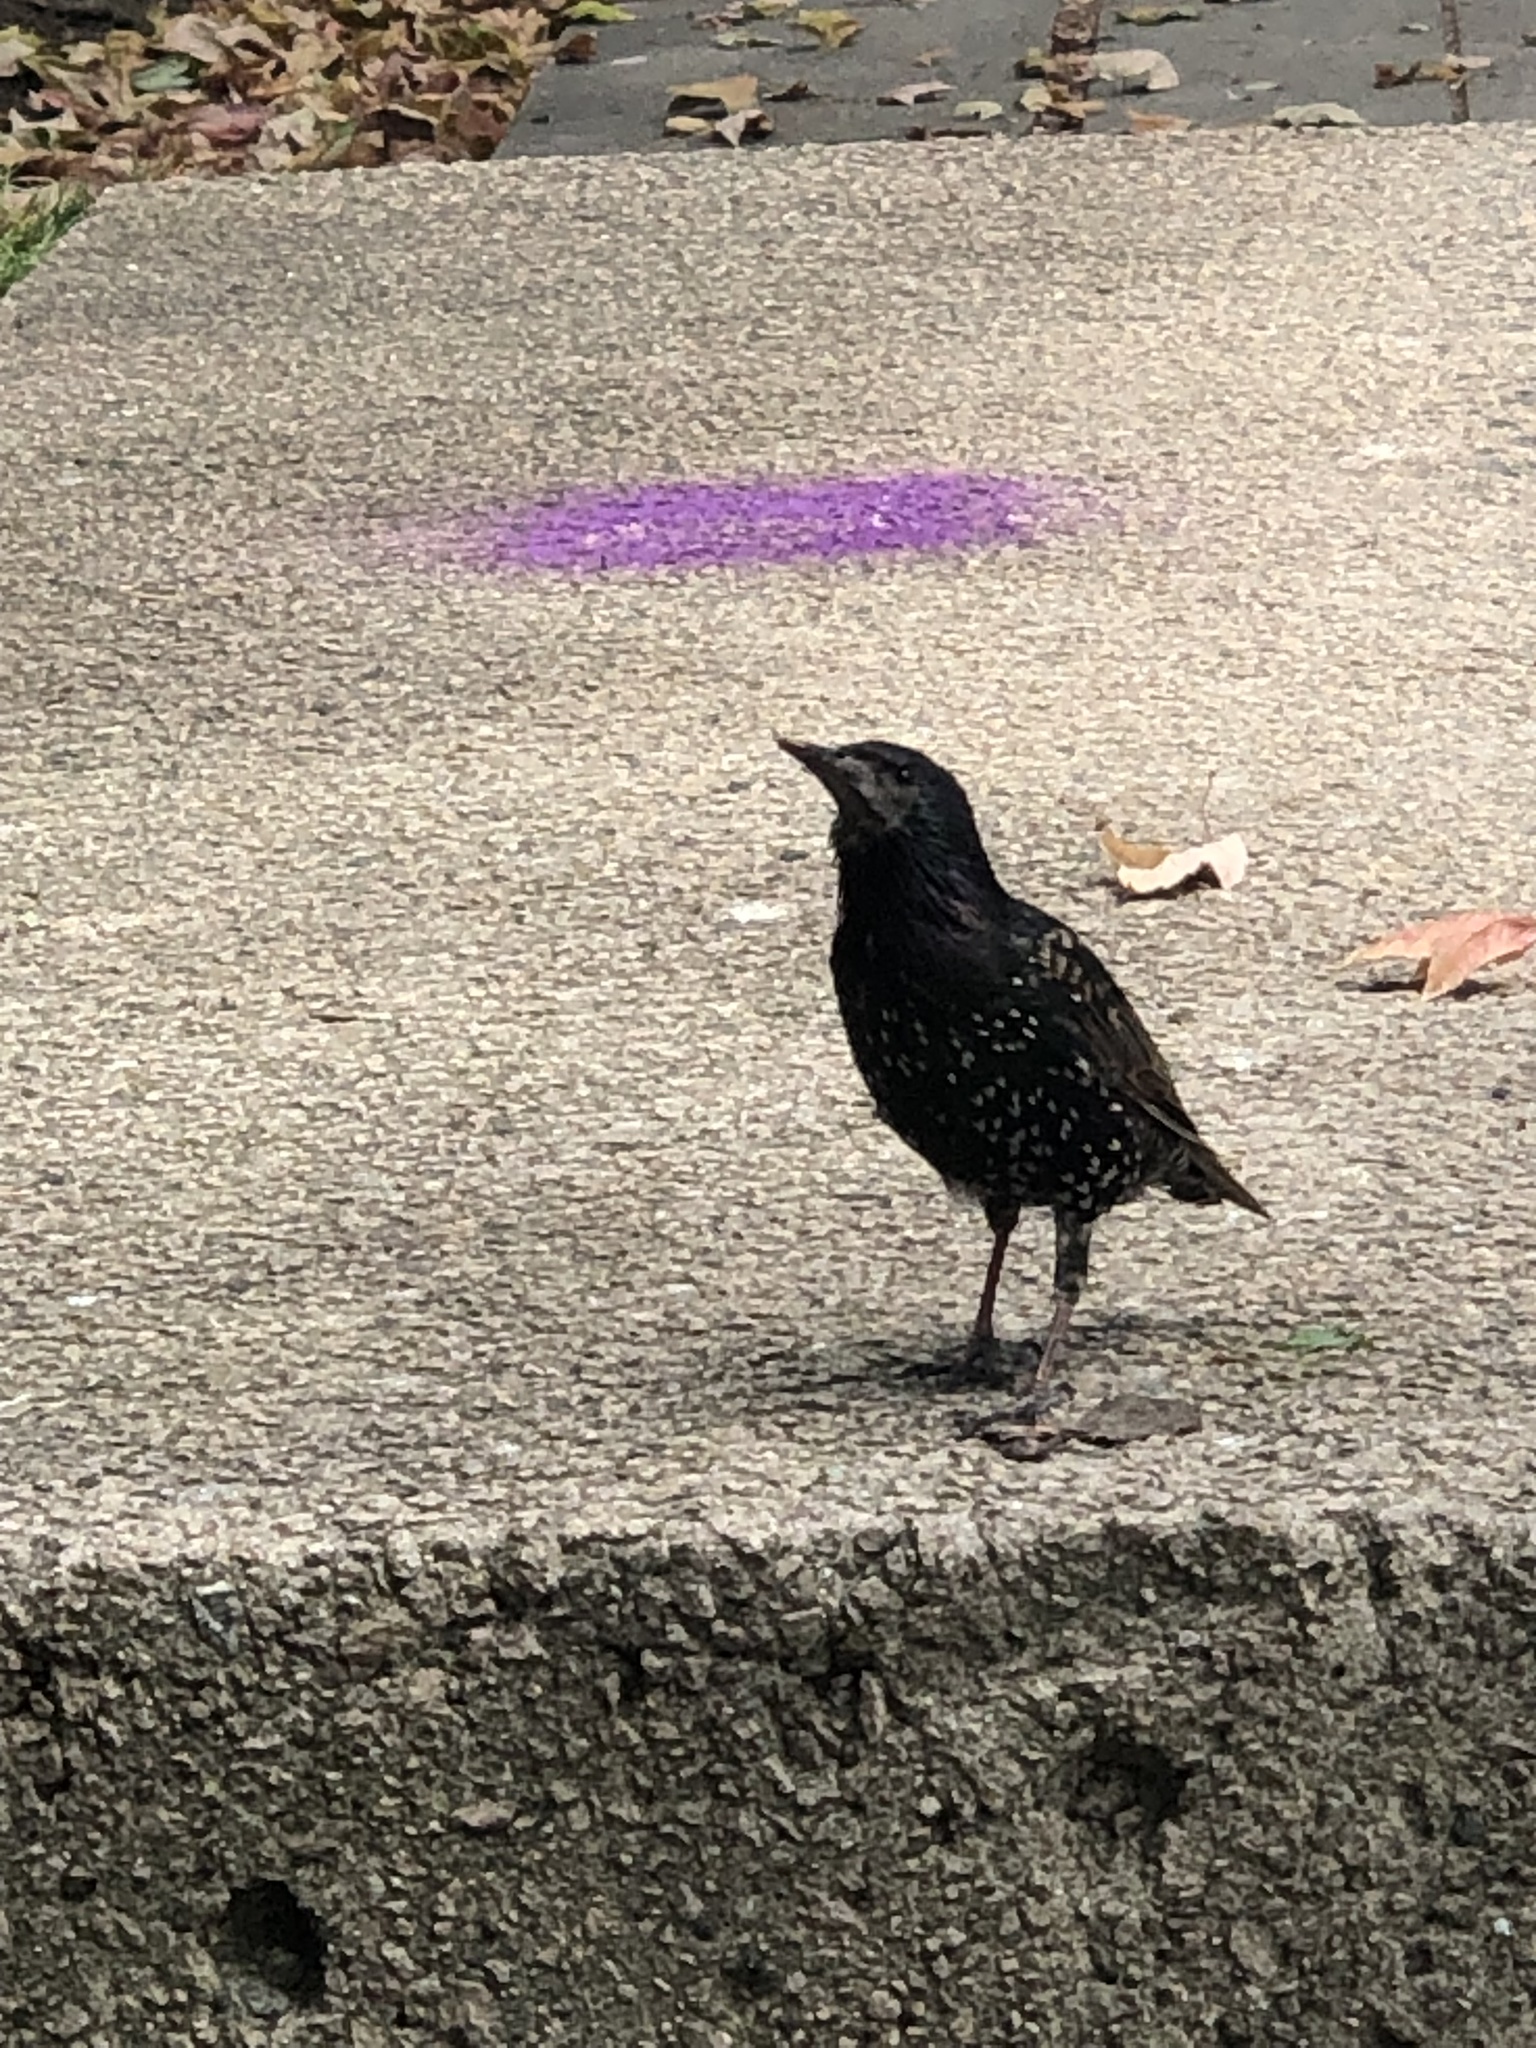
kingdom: Animalia
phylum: Chordata
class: Aves
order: Passeriformes
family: Sturnidae
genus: Sturnus
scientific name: Sturnus vulgaris
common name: Common starling
